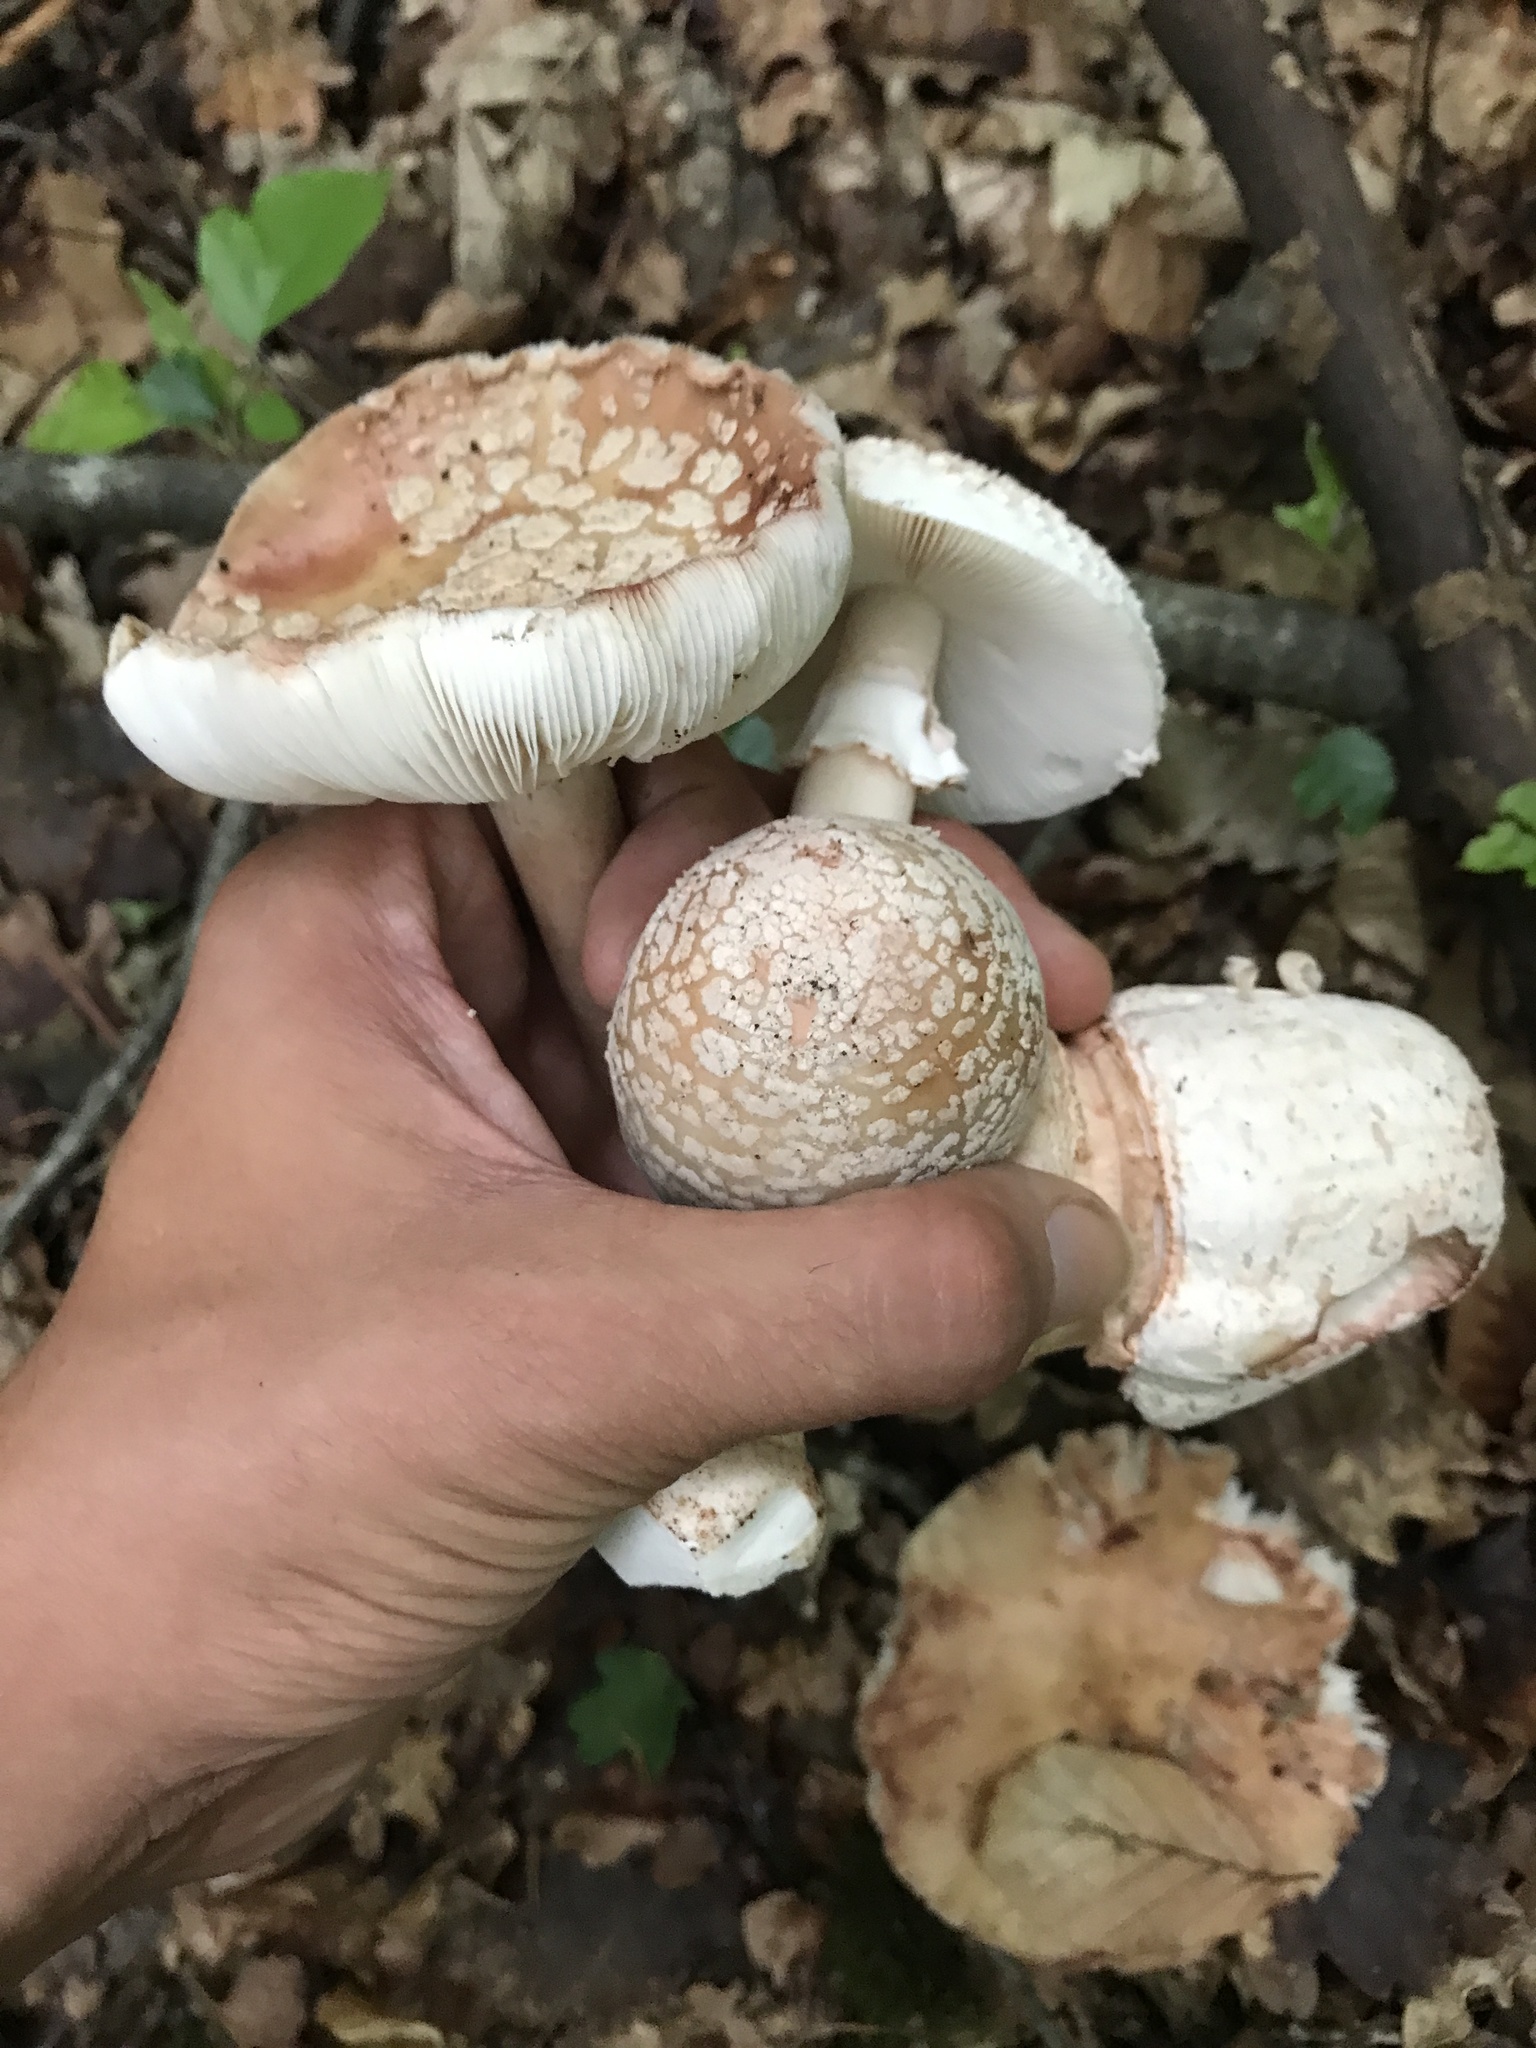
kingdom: Fungi
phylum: Basidiomycota
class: Agaricomycetes
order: Agaricales
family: Amanitaceae
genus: Amanita
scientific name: Amanita rubescens
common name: Blusher
